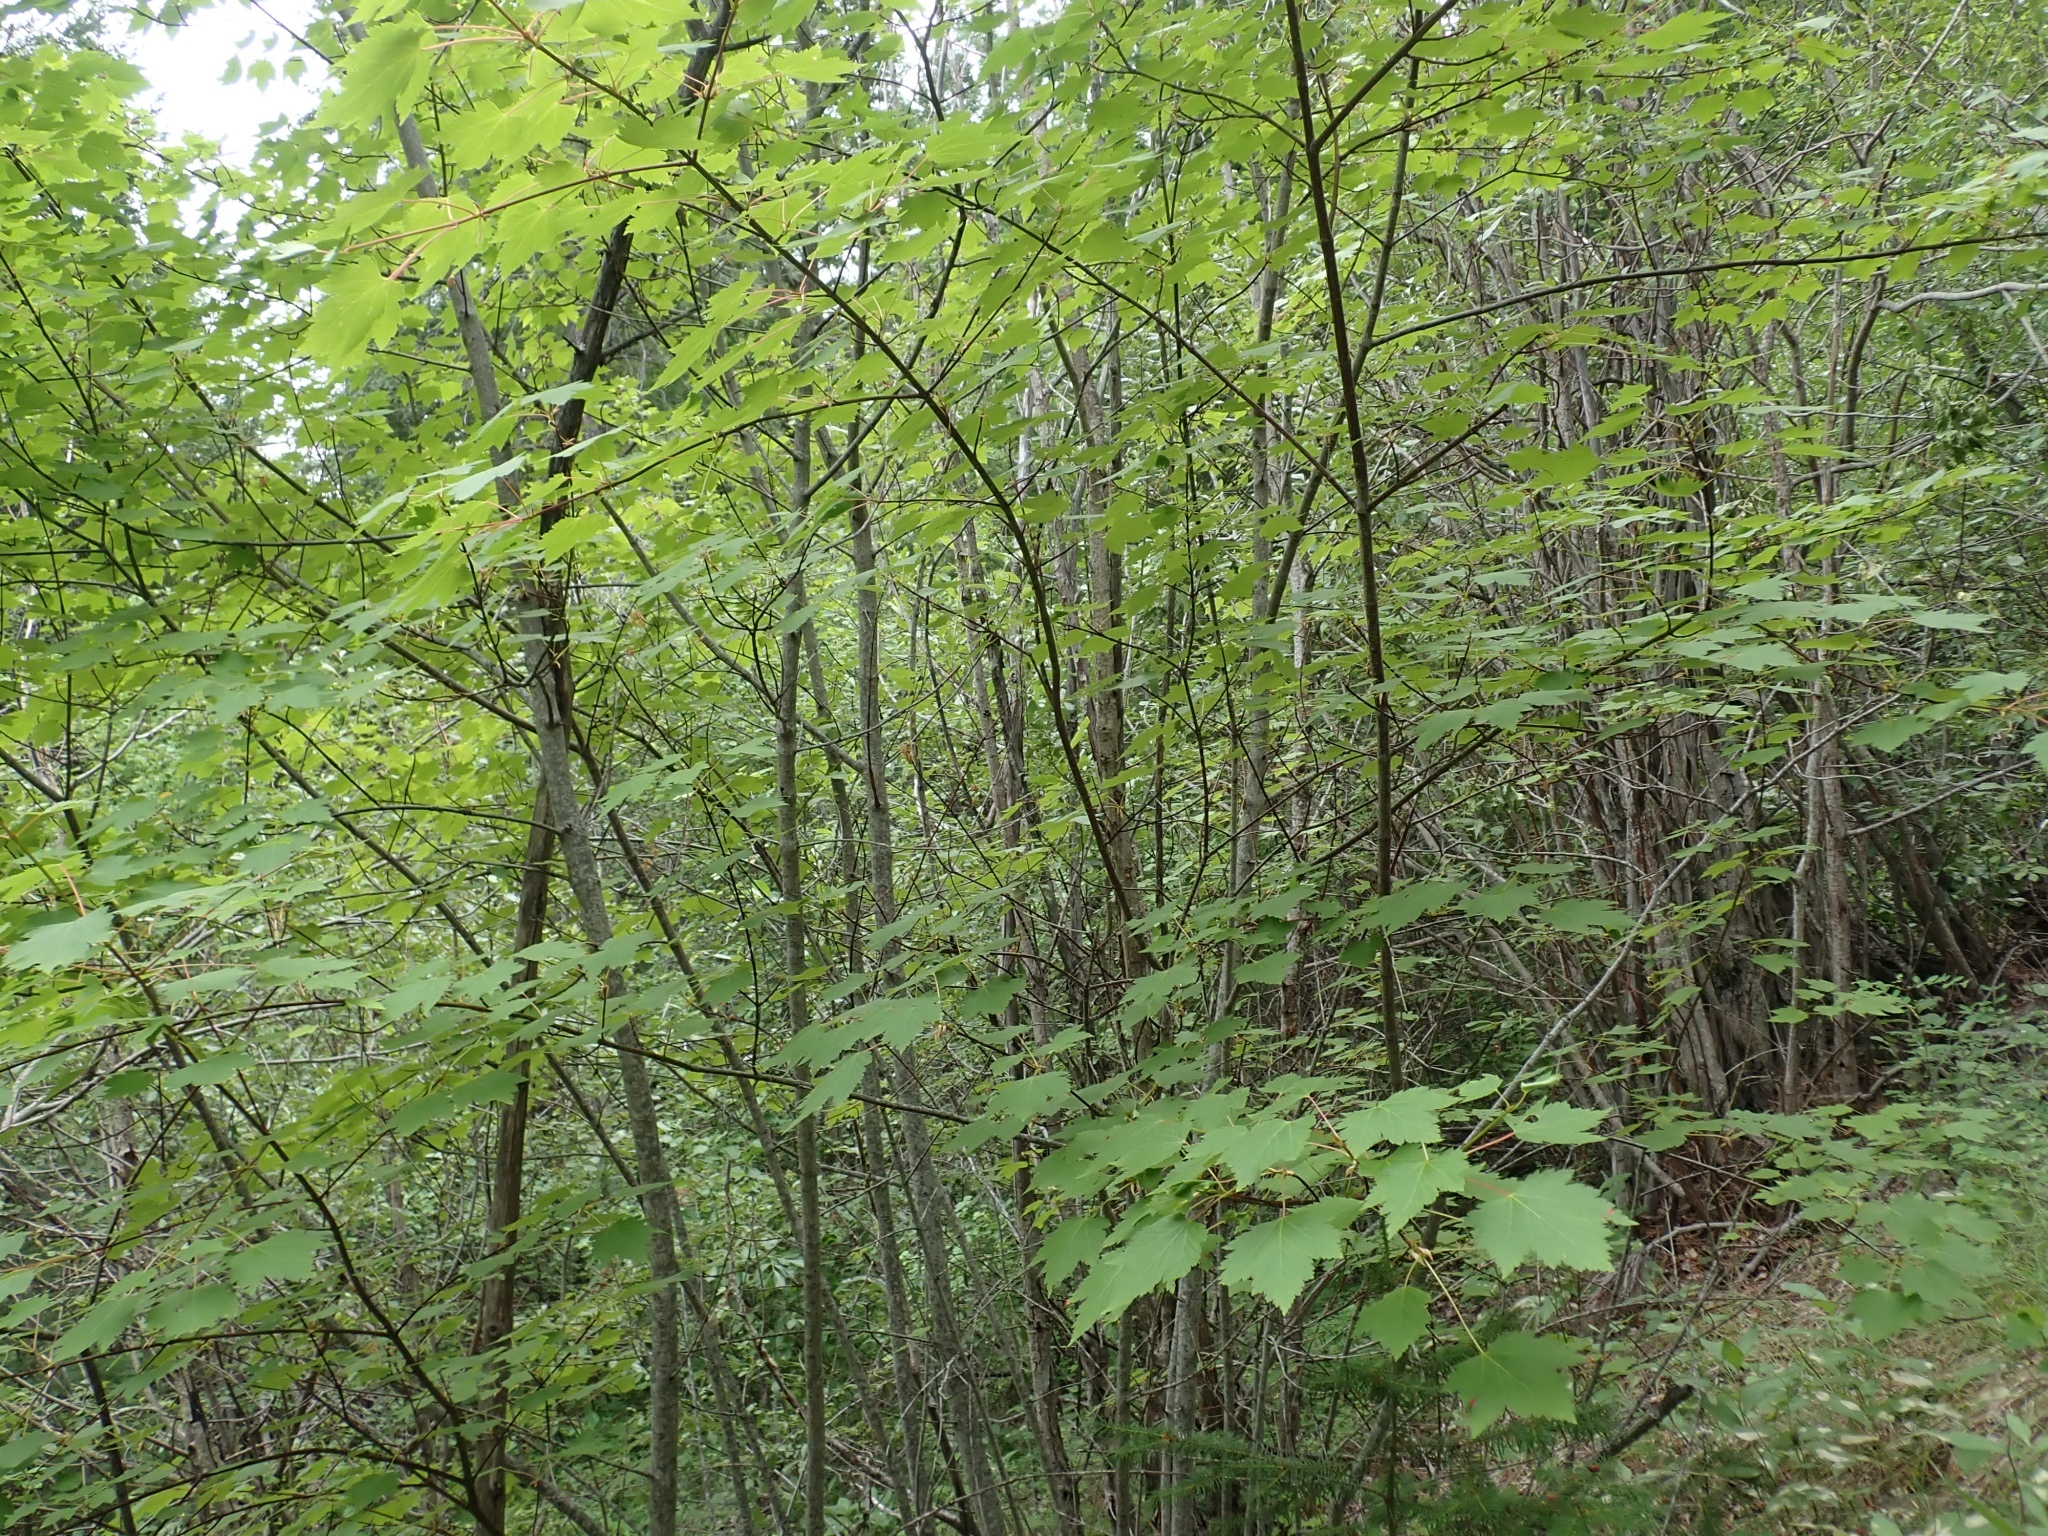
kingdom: Plantae
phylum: Tracheophyta
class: Magnoliopsida
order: Sapindales
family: Sapindaceae
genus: Acer
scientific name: Acer glabrum
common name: Rocky mountain maple
